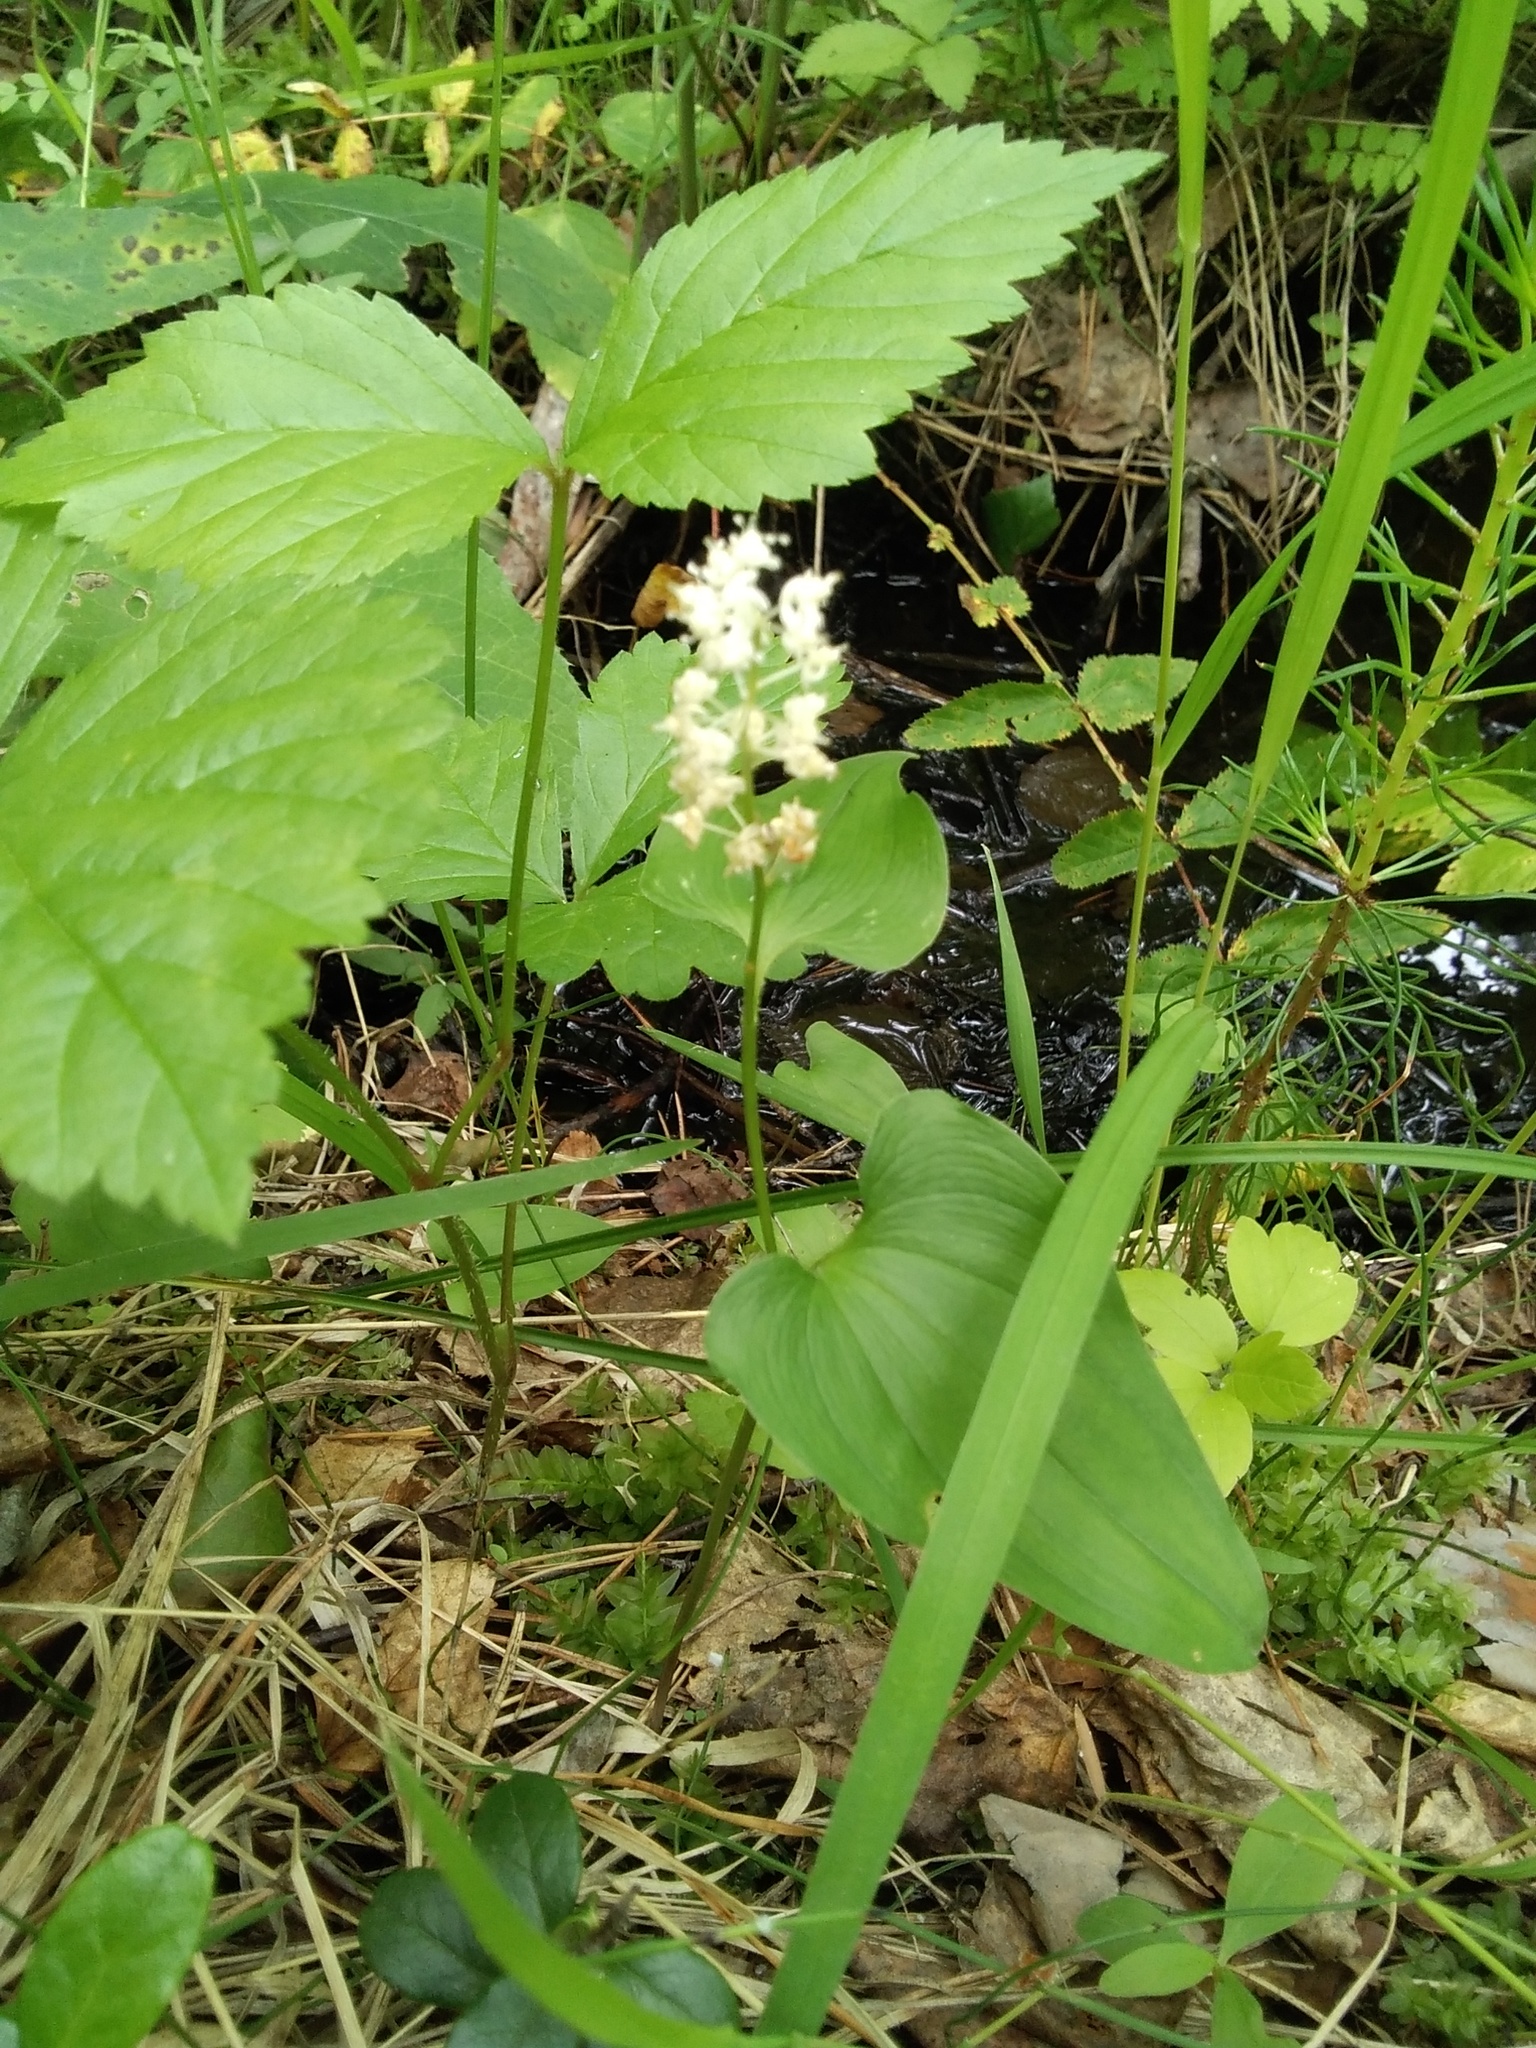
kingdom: Plantae
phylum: Tracheophyta
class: Liliopsida
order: Asparagales
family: Asparagaceae
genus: Maianthemum
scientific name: Maianthemum bifolium
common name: May lily
